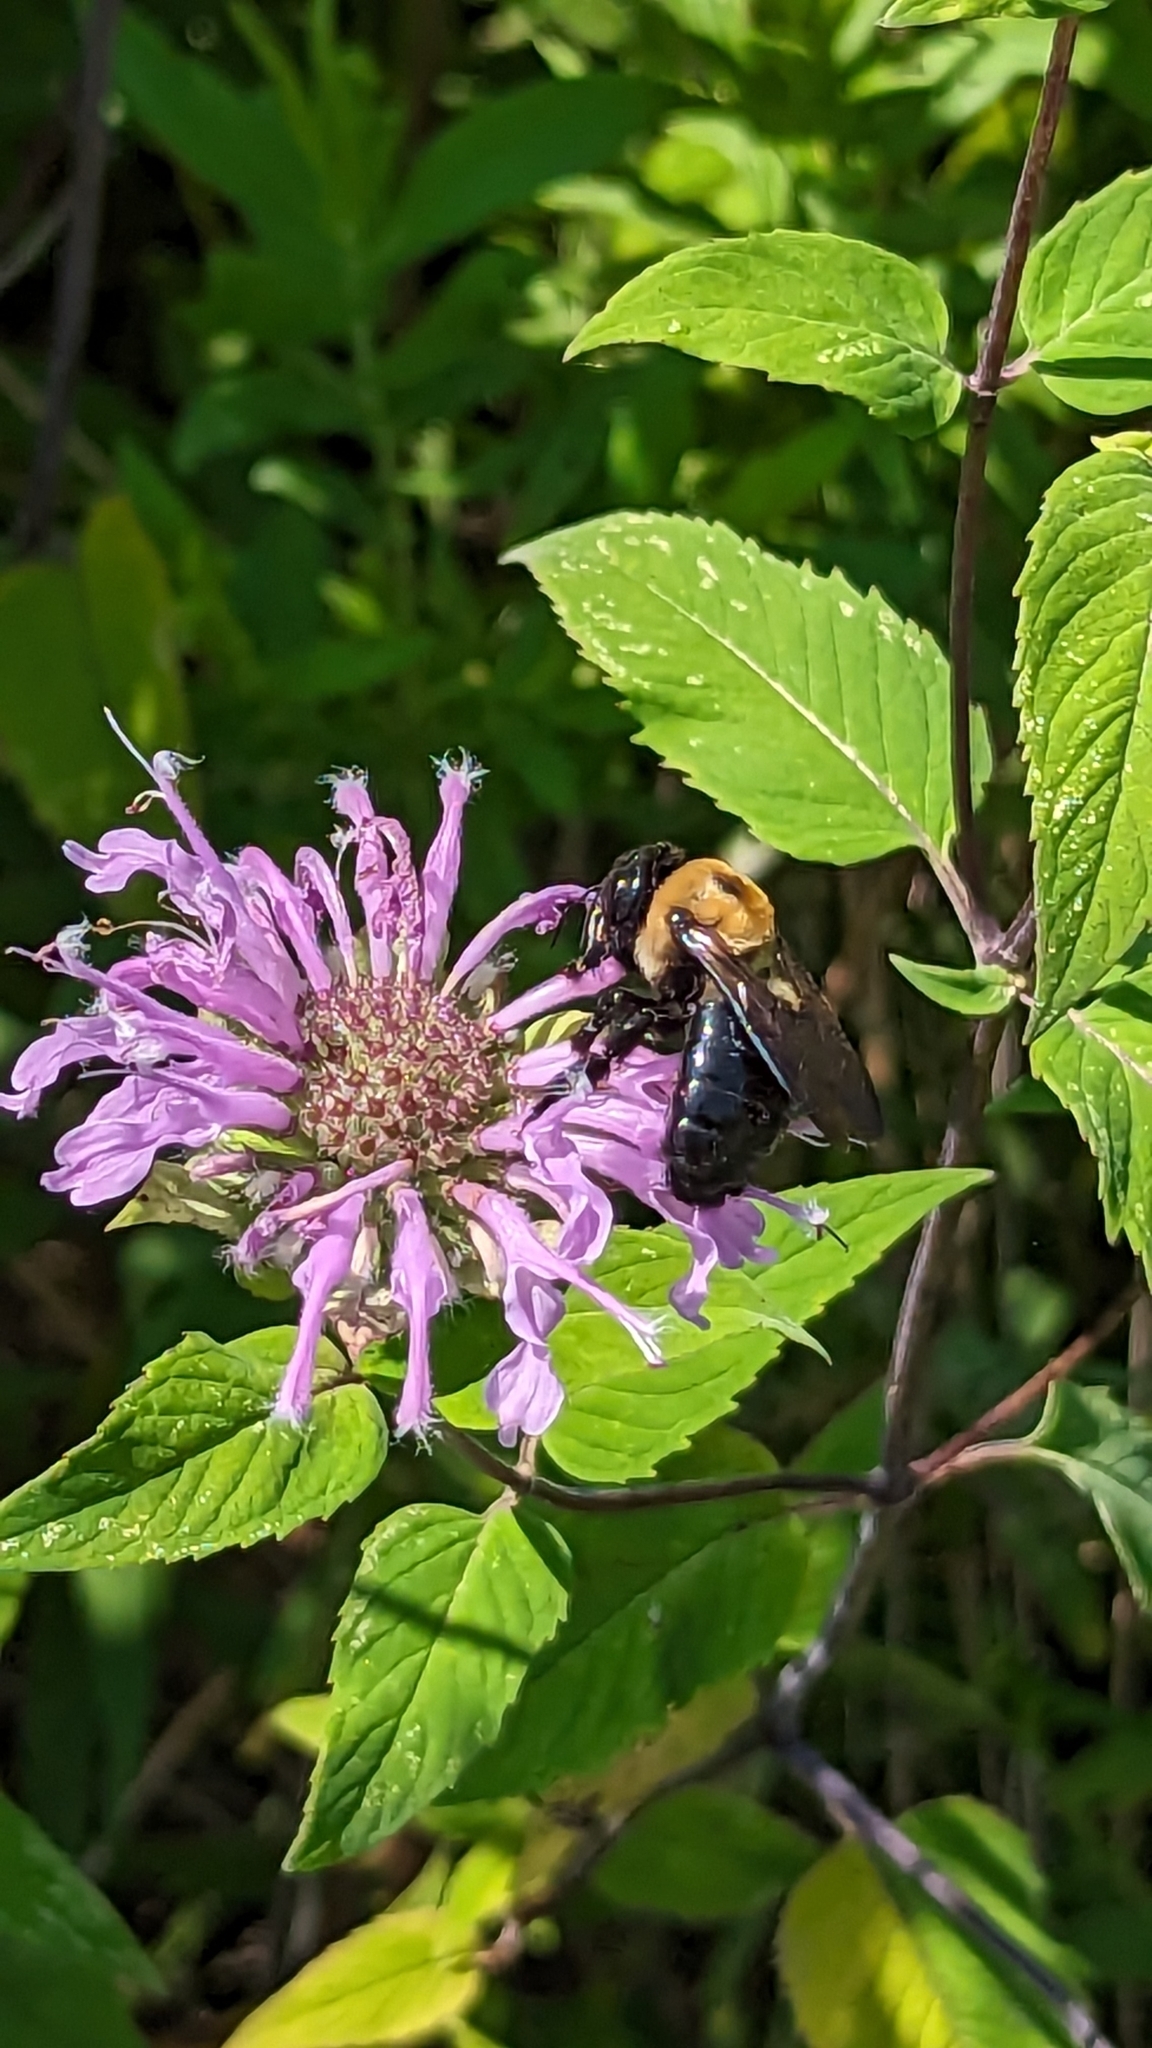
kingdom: Animalia
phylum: Arthropoda
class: Insecta
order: Hymenoptera
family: Apidae
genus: Xylocopa
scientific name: Xylocopa virginica
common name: Carpenter bee
